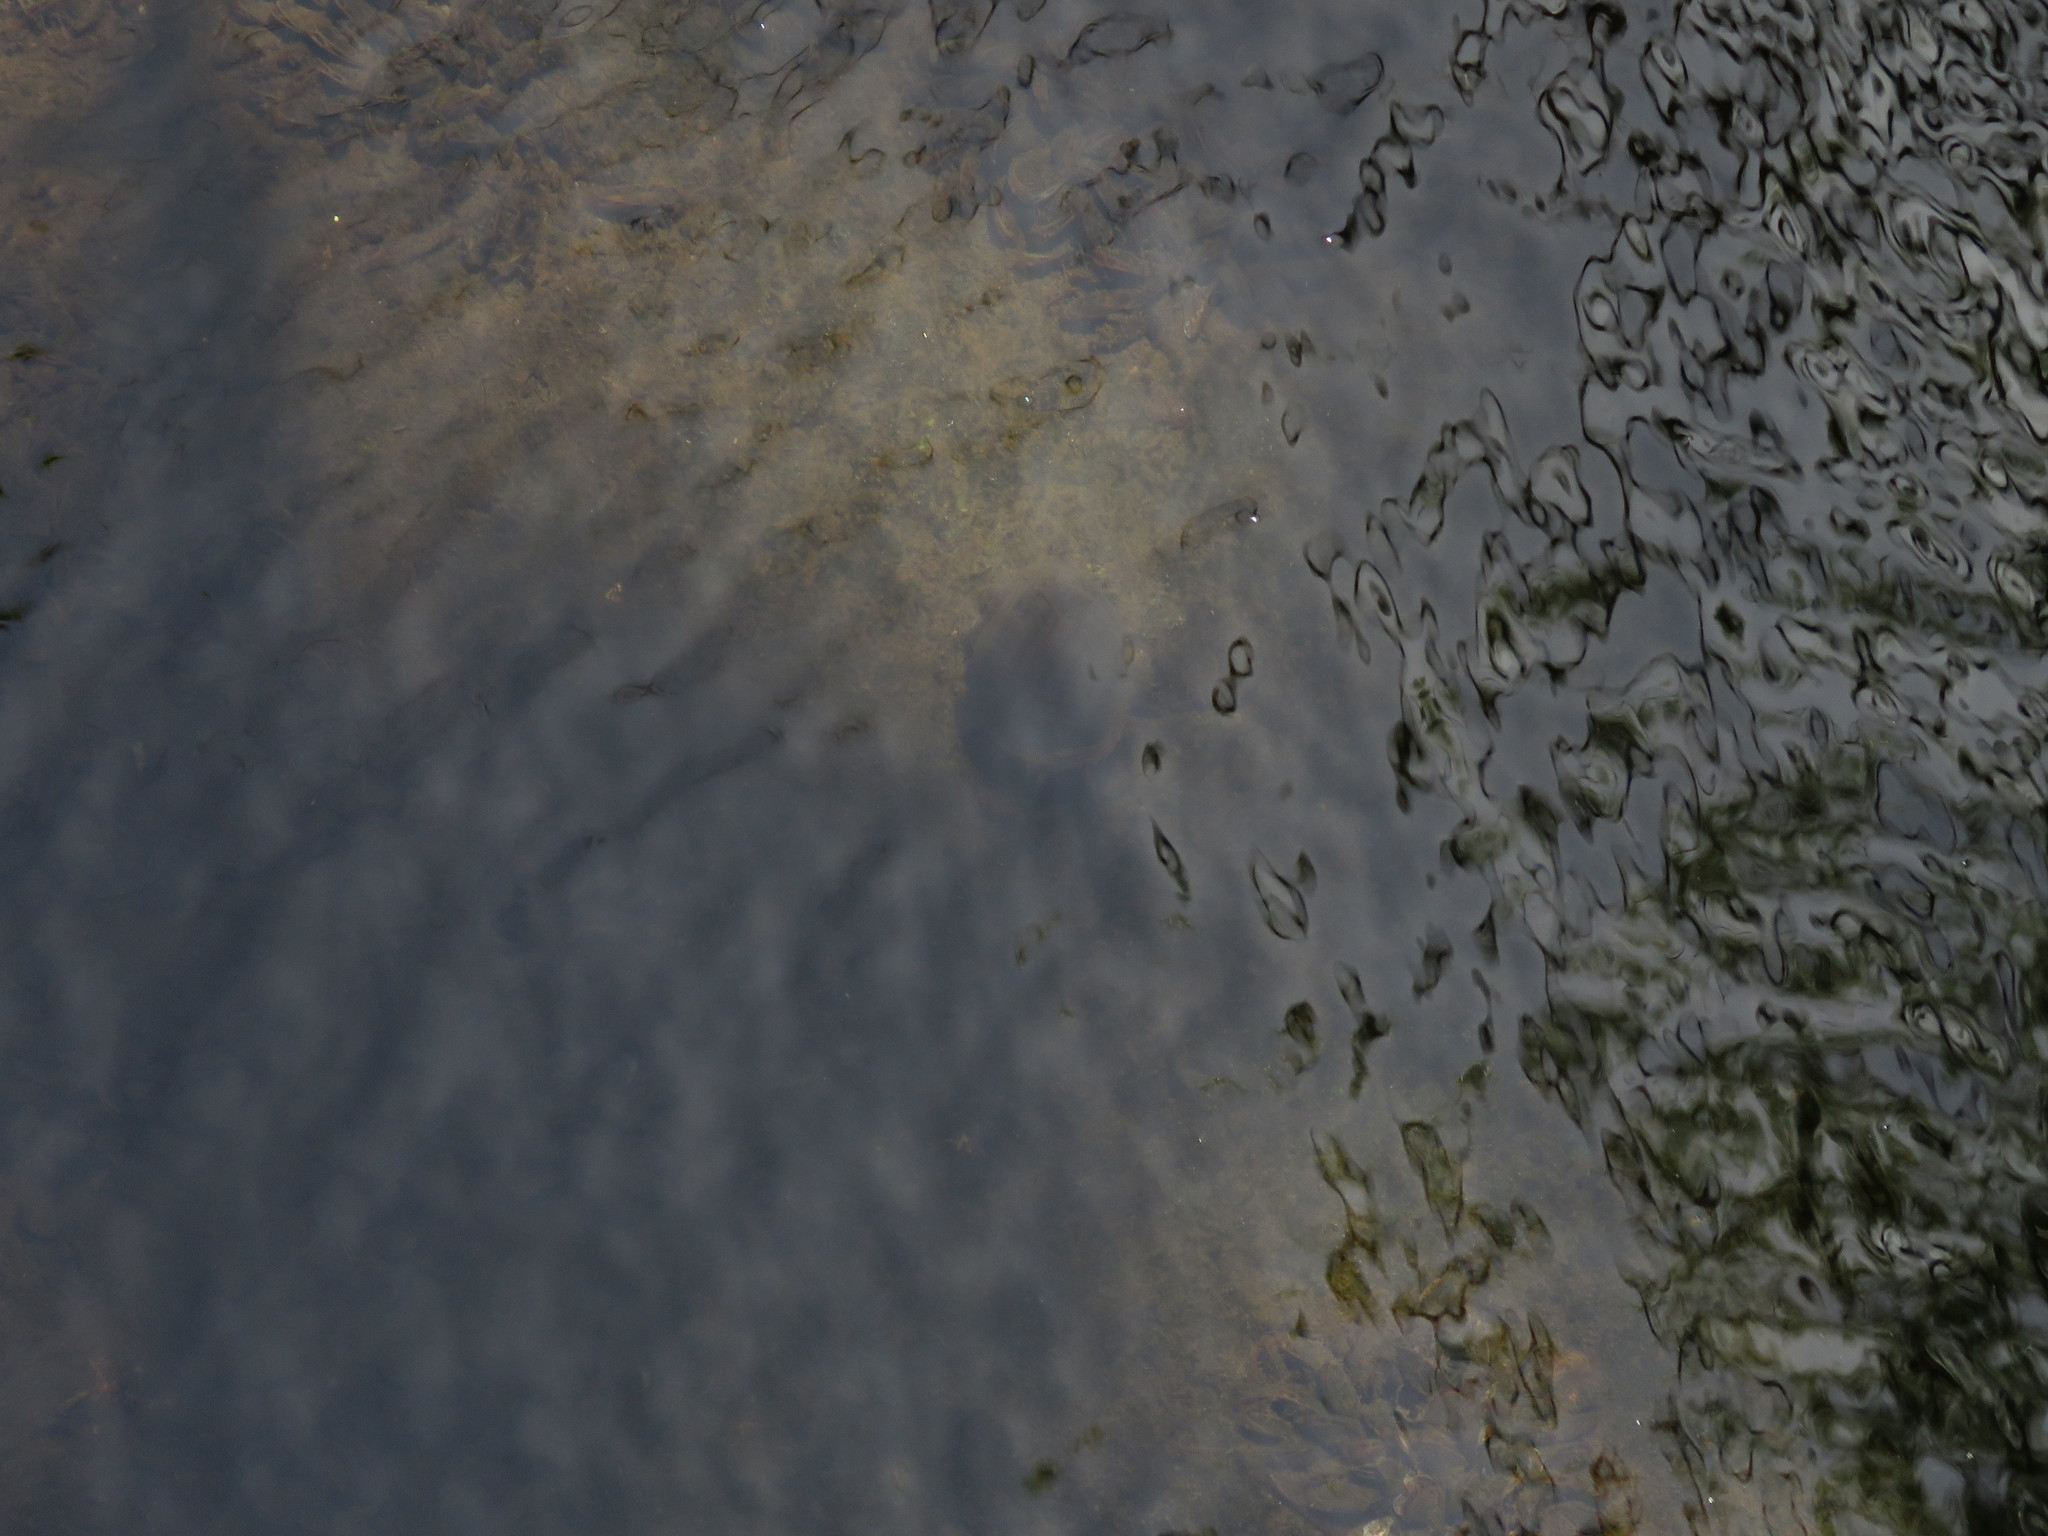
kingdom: Animalia
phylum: Mollusca
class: Gastropoda
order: Architaenioglossa
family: Ampullariidae
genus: Pomacea
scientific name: Pomacea canaliculata
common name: Channeled applesnail
